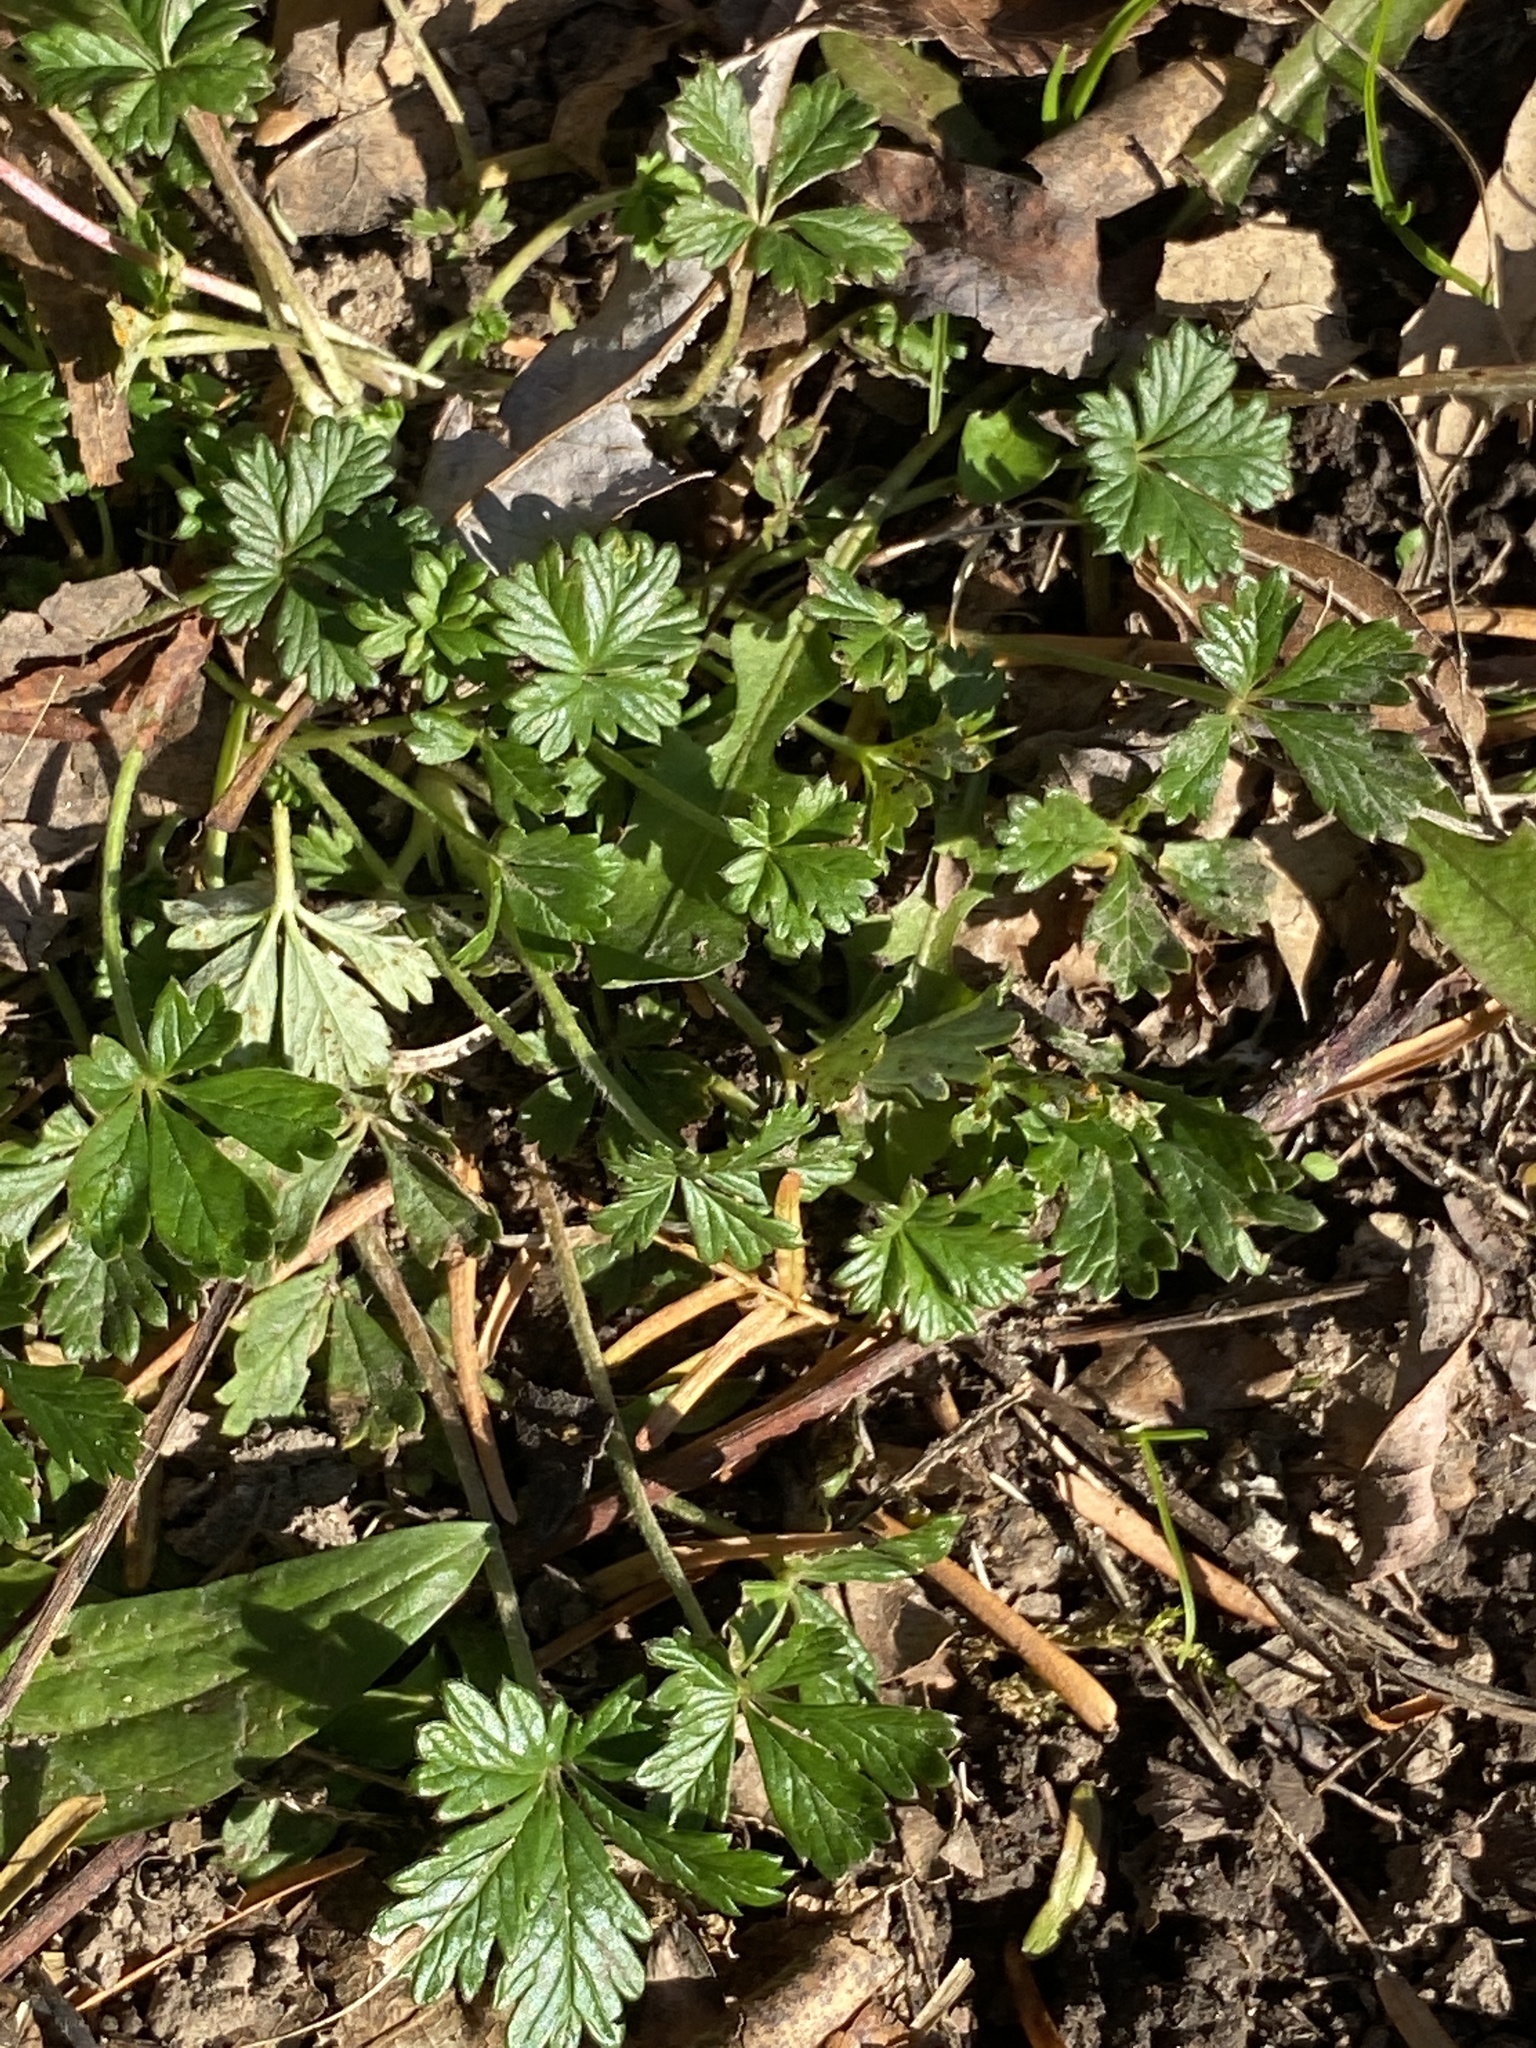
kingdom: Plantae
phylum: Tracheophyta
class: Magnoliopsida
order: Rosales
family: Rosaceae
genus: Potentilla
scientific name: Potentilla argentea
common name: Hoary cinquefoil
